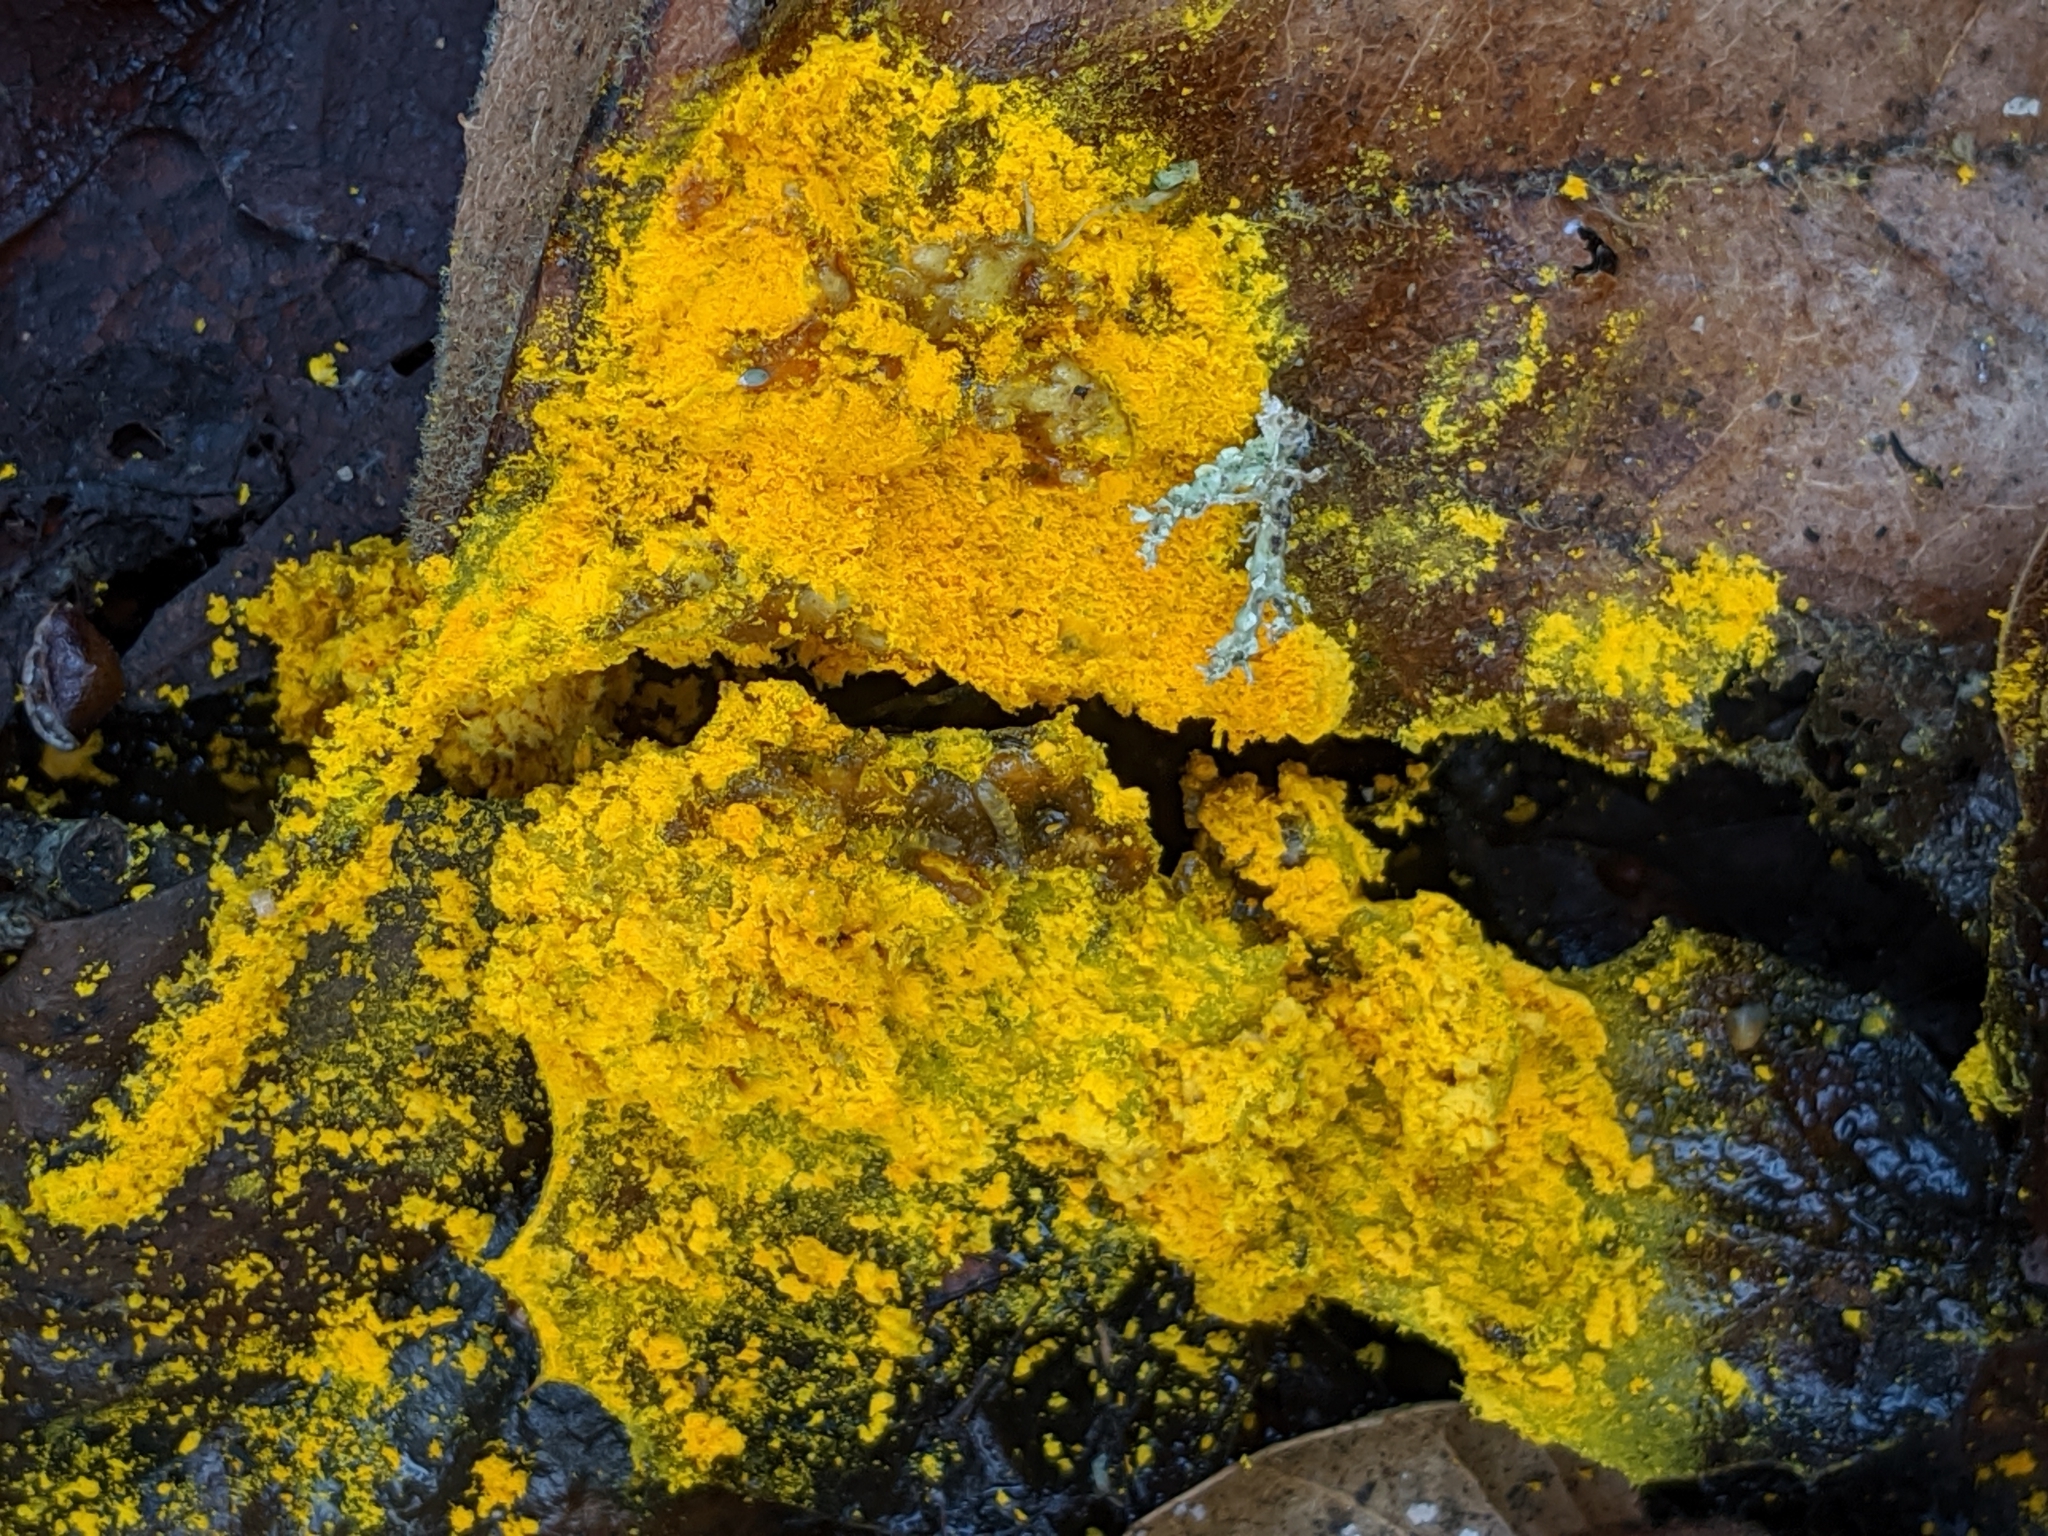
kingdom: Protozoa
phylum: Mycetozoa
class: Myxomycetes
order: Physarales
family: Physaraceae
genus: Fuligo
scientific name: Fuligo septica
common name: Dog vomit slime mold
